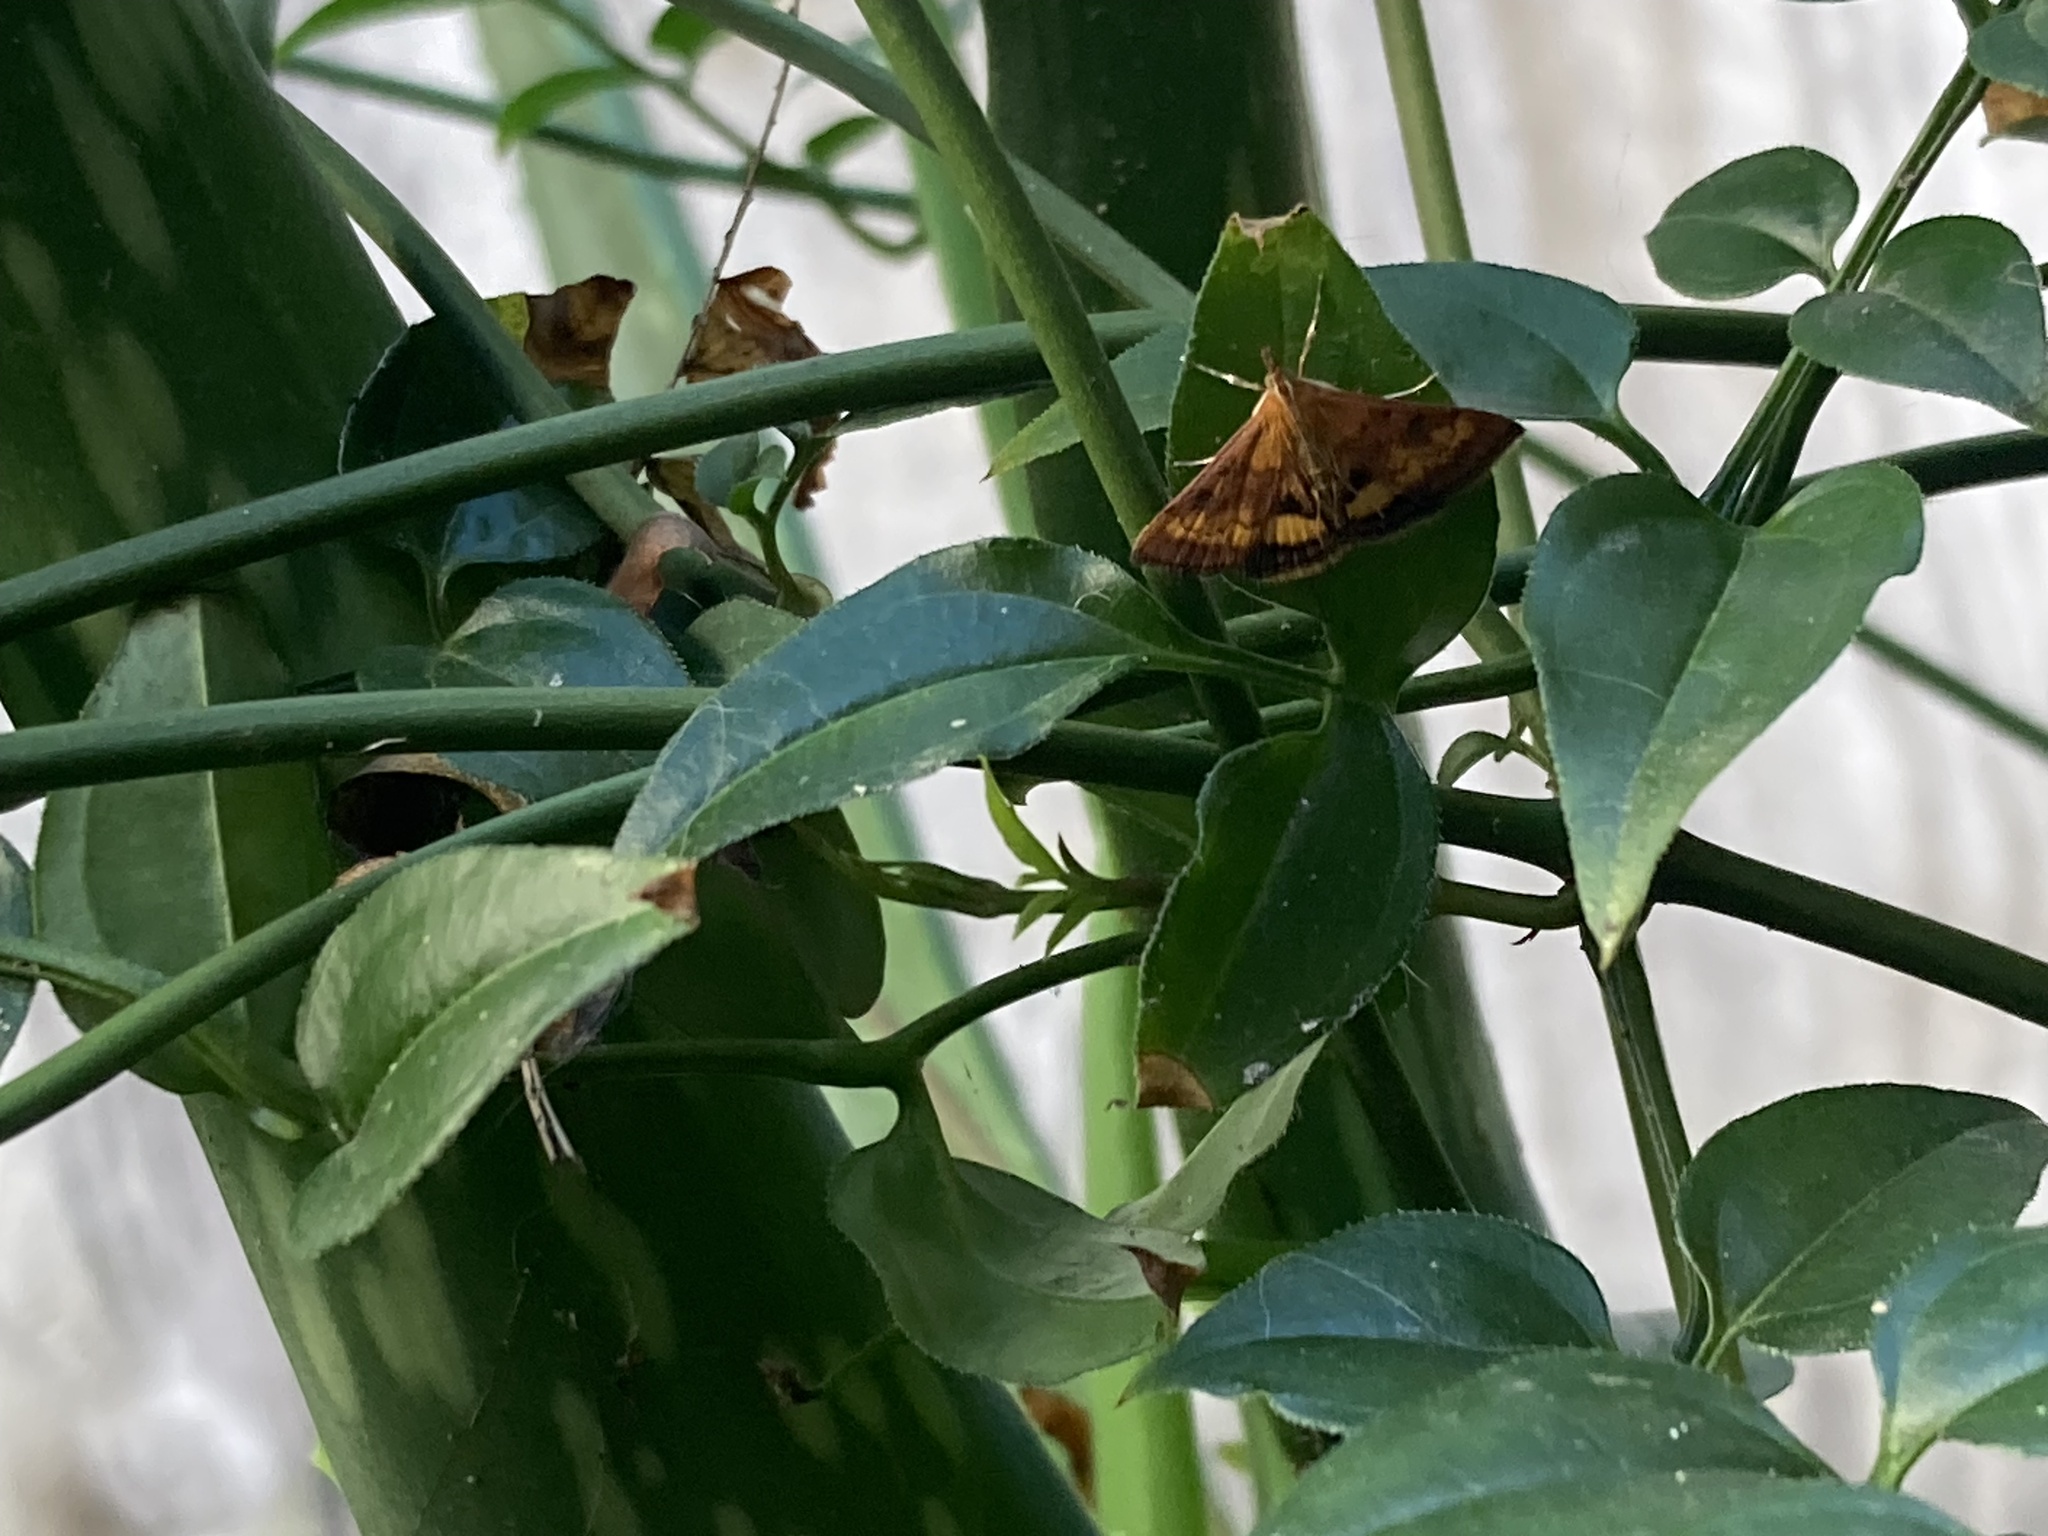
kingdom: Animalia
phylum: Arthropoda
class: Insecta
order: Lepidoptera
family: Crambidae
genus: Pyrausta
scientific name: Pyrausta californicalis
